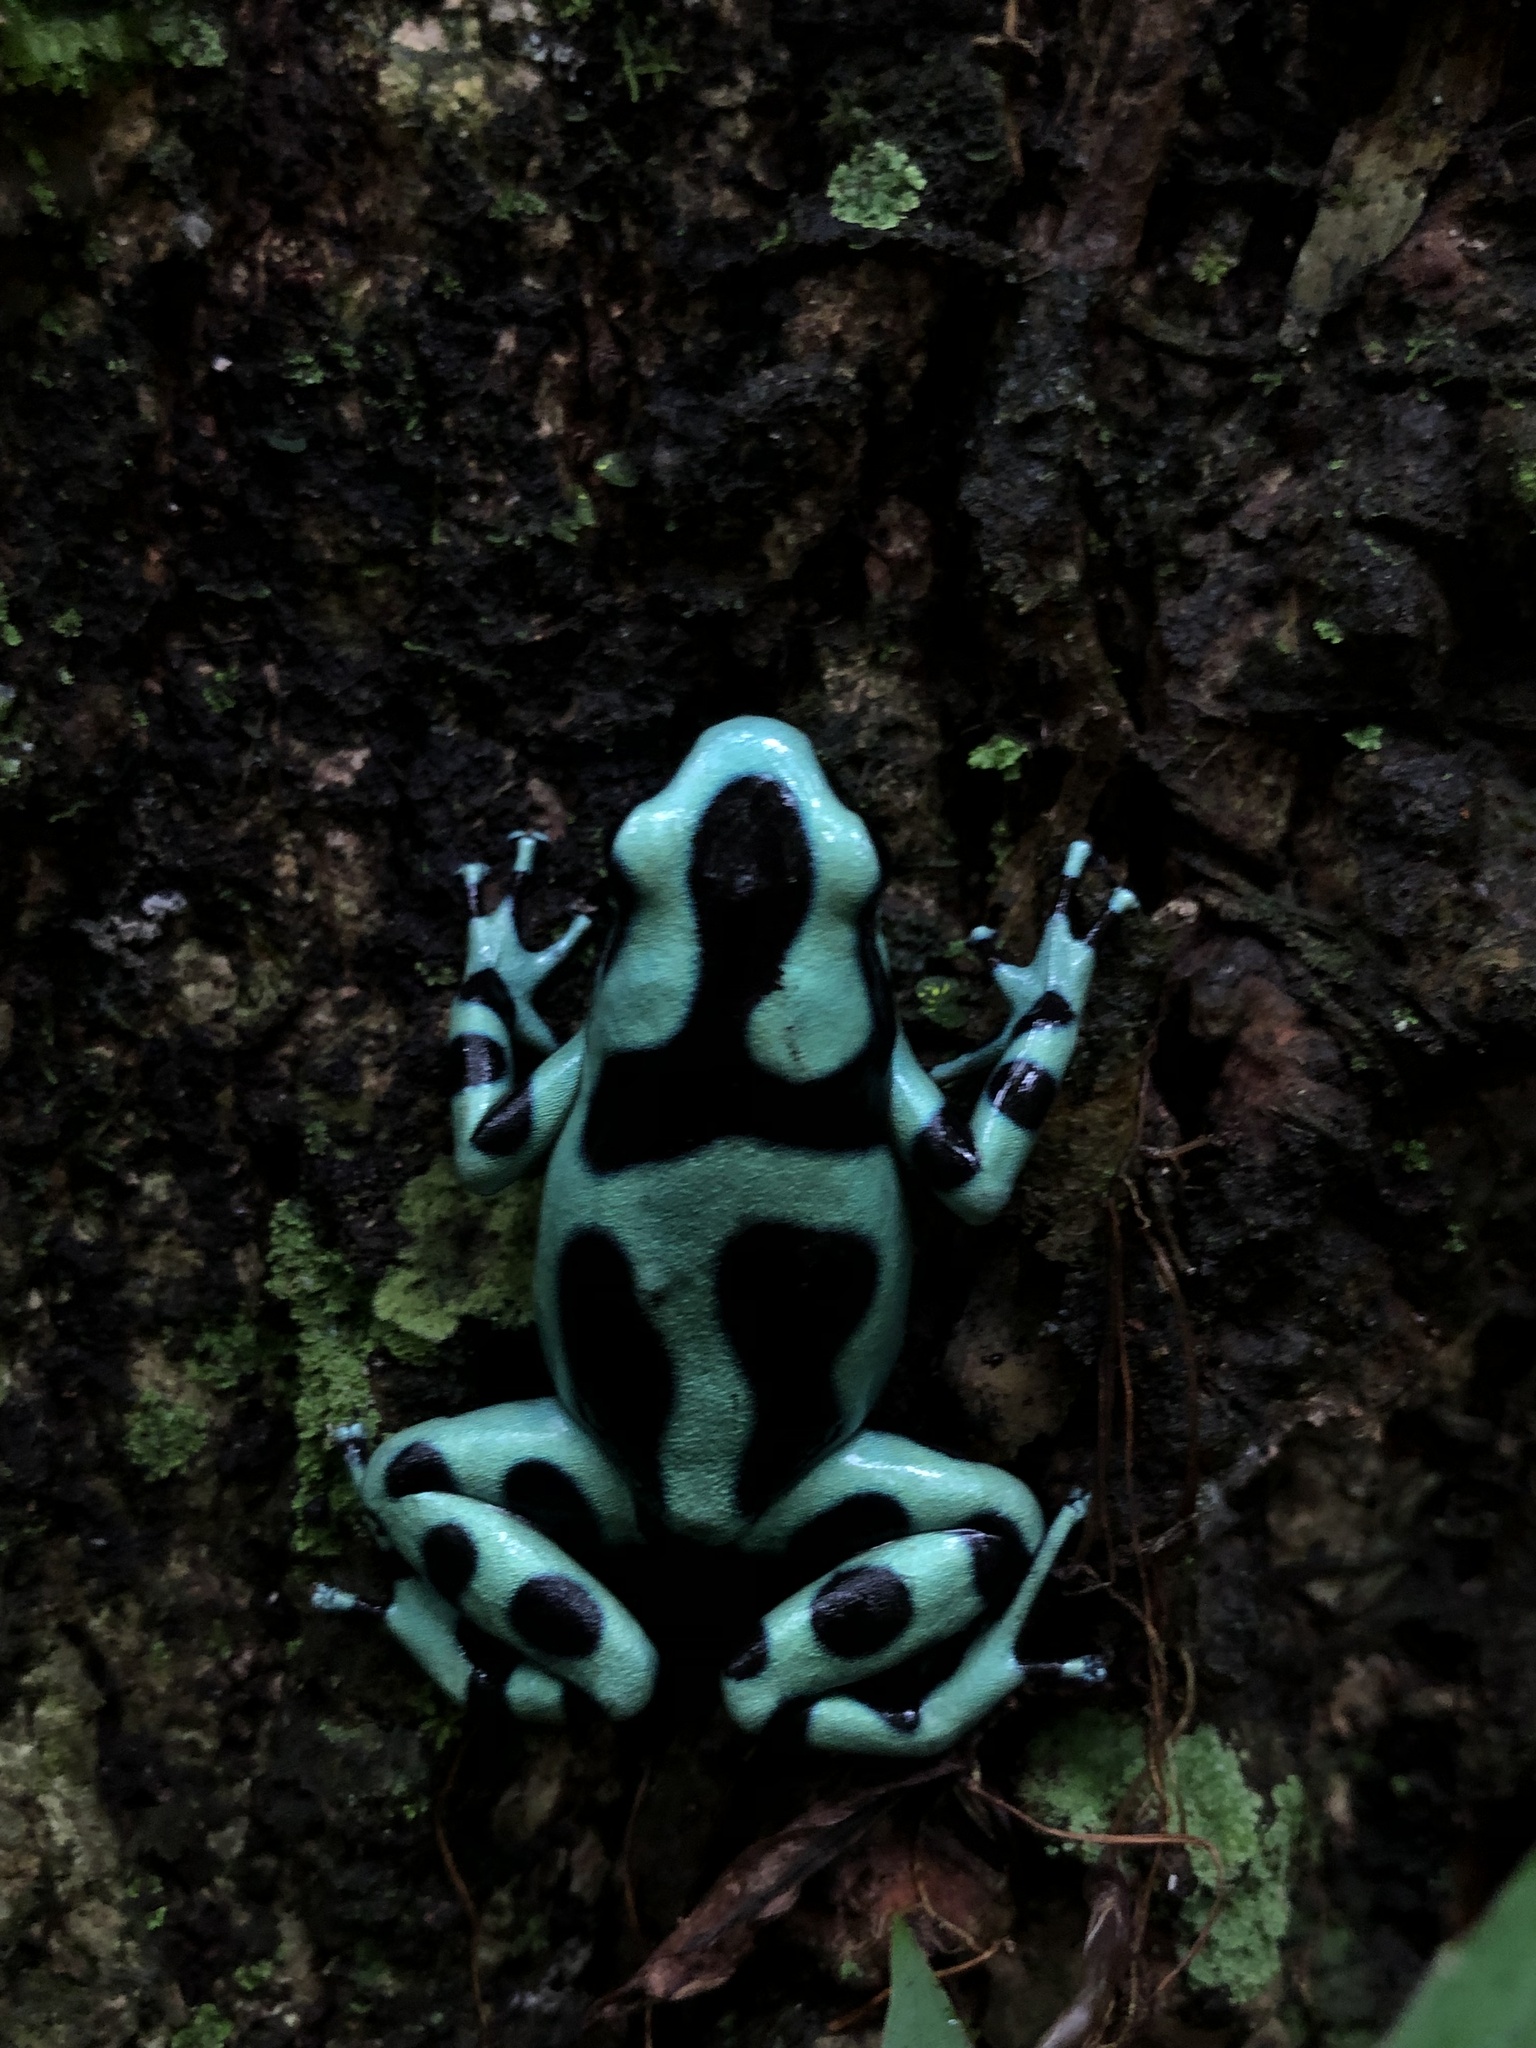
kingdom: Animalia
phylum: Chordata
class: Amphibia
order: Anura
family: Dendrobatidae
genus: Dendrobates
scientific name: Dendrobates auratus
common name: Green and black poison dart frog
